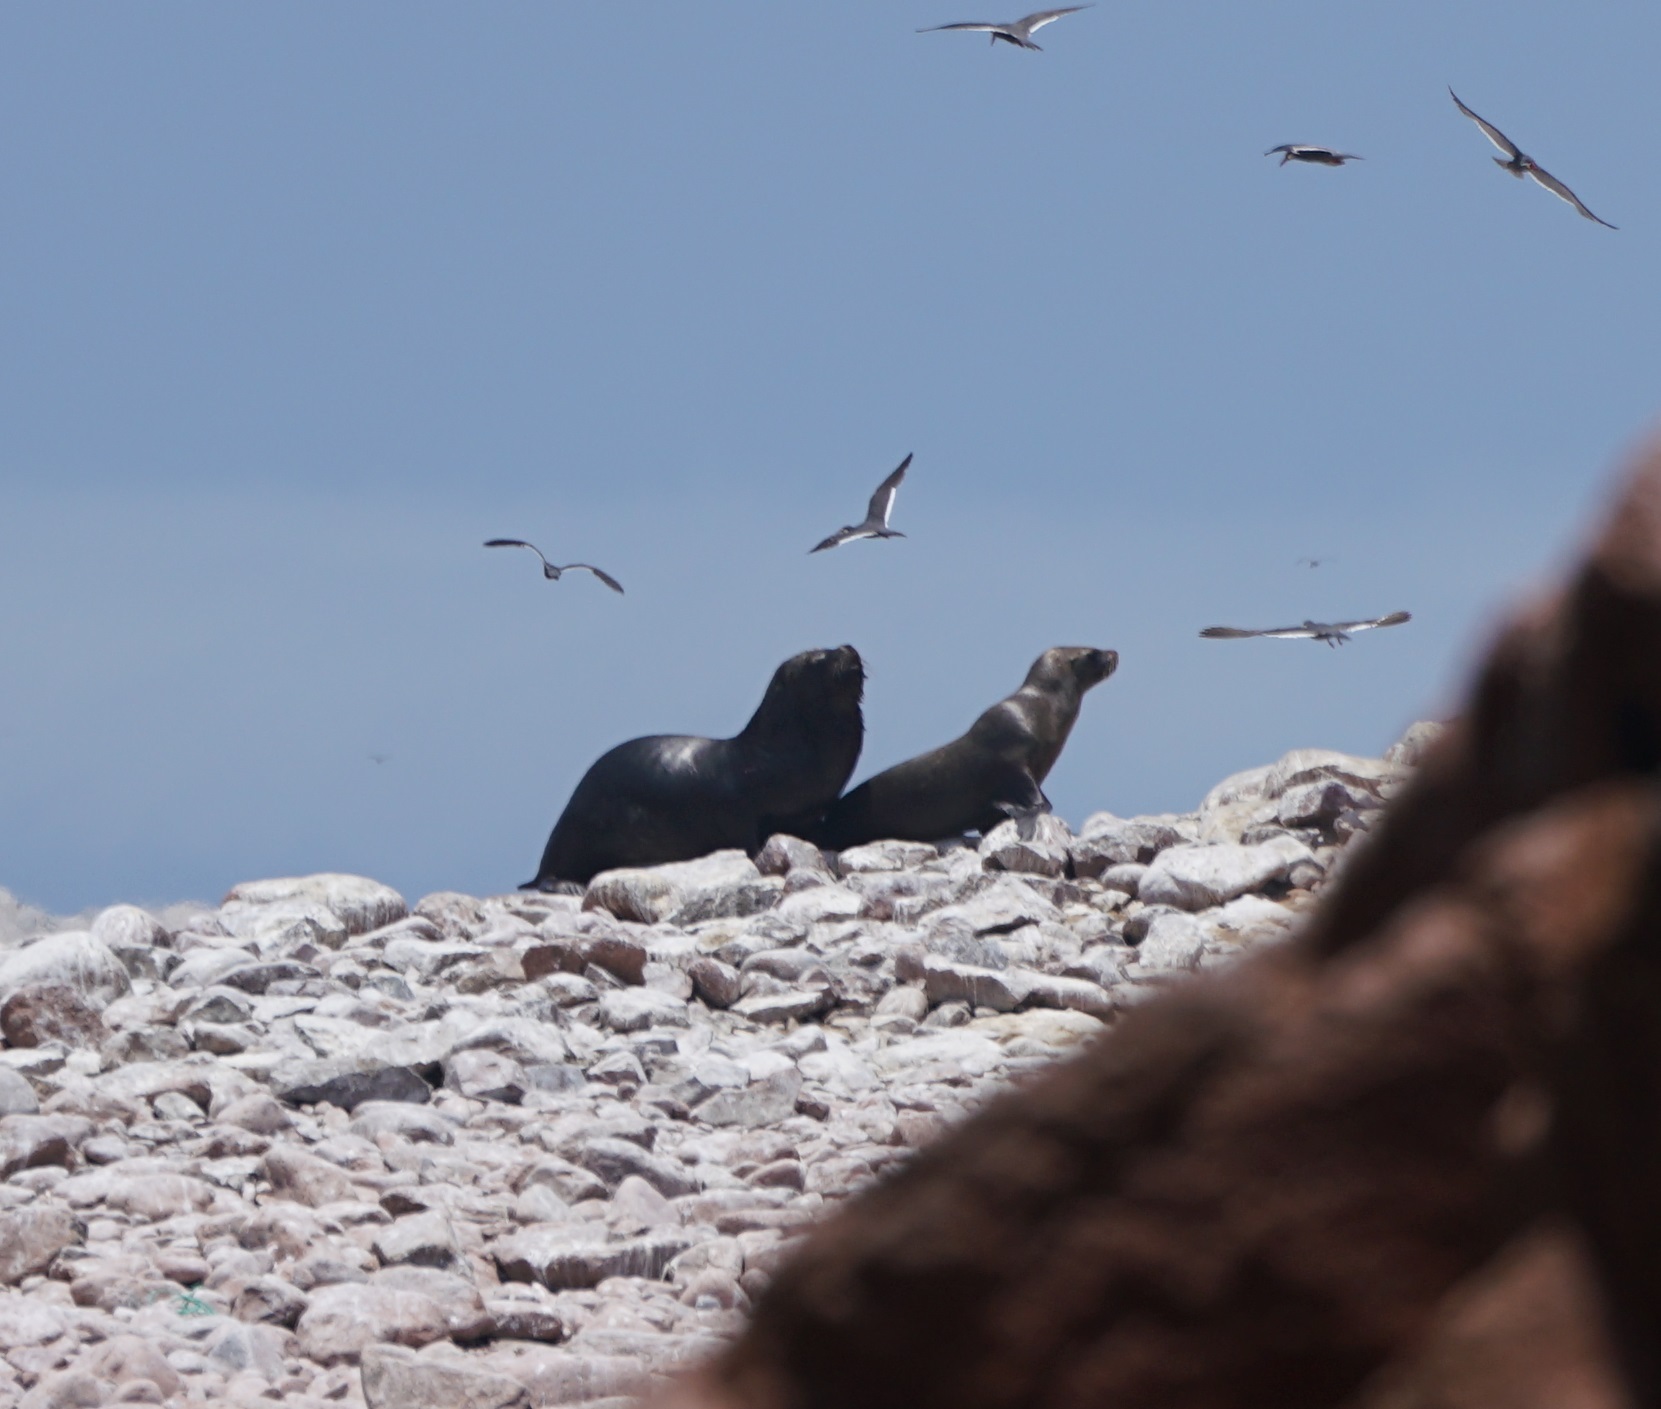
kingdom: Animalia
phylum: Chordata
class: Mammalia
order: Carnivora
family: Otariidae
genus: Otaria
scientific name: Otaria byronia
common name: South american sea lion
